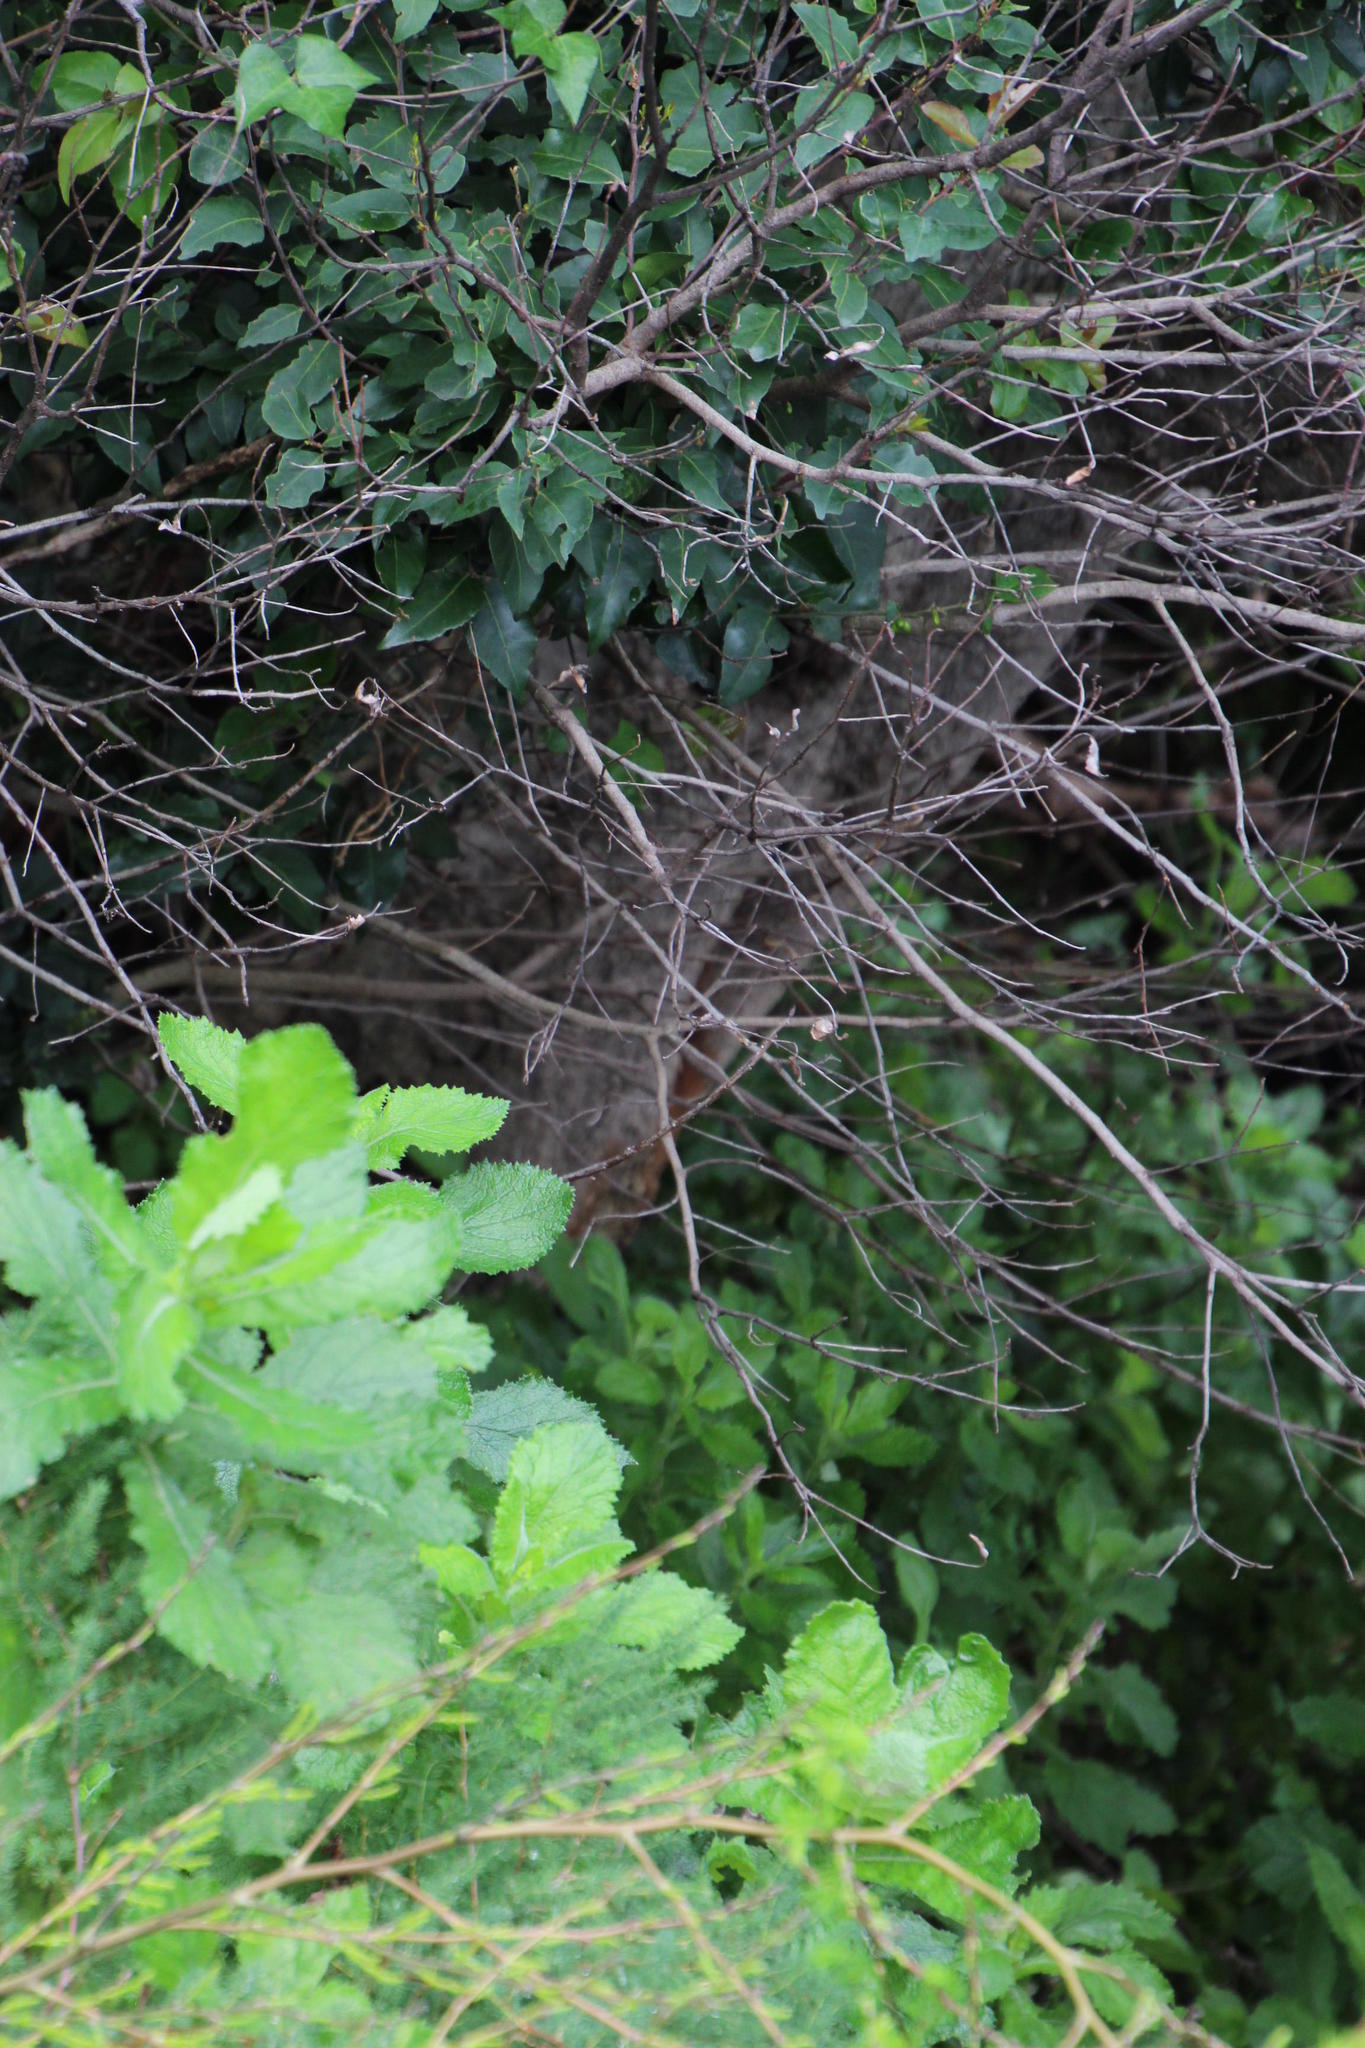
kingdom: Plantae
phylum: Tracheophyta
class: Magnoliopsida
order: Celastrales
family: Celastraceae
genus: Gymnosporia
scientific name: Gymnosporia laurina
